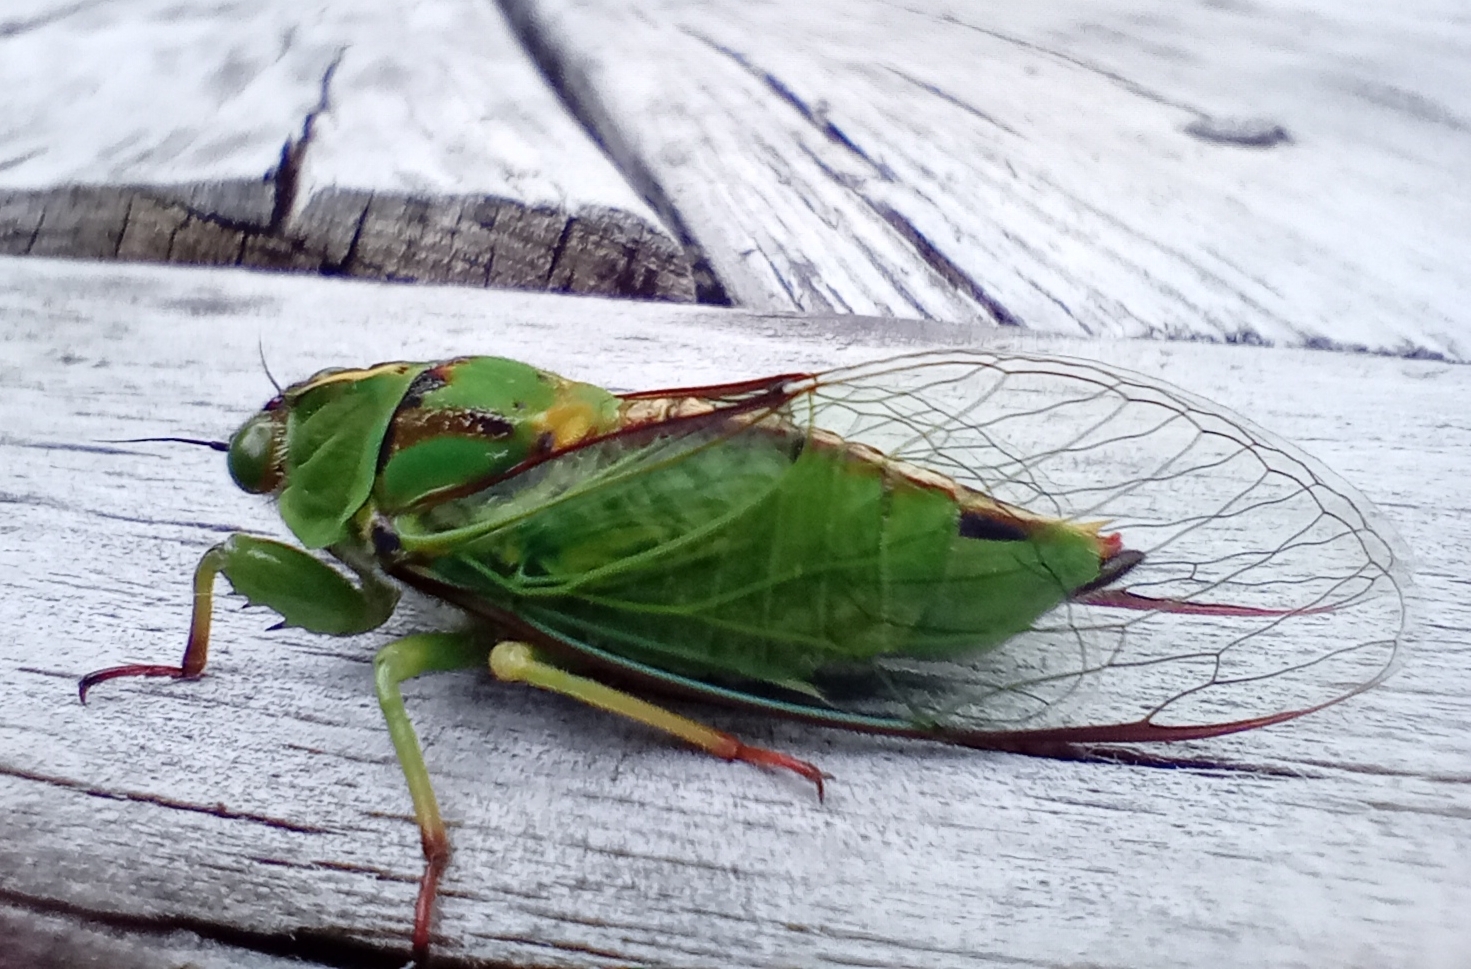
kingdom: Animalia
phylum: Arthropoda
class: Insecta
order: Hemiptera
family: Cicadidae
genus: Kikihia
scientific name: Kikihia subalpina
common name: Chathams cicada
